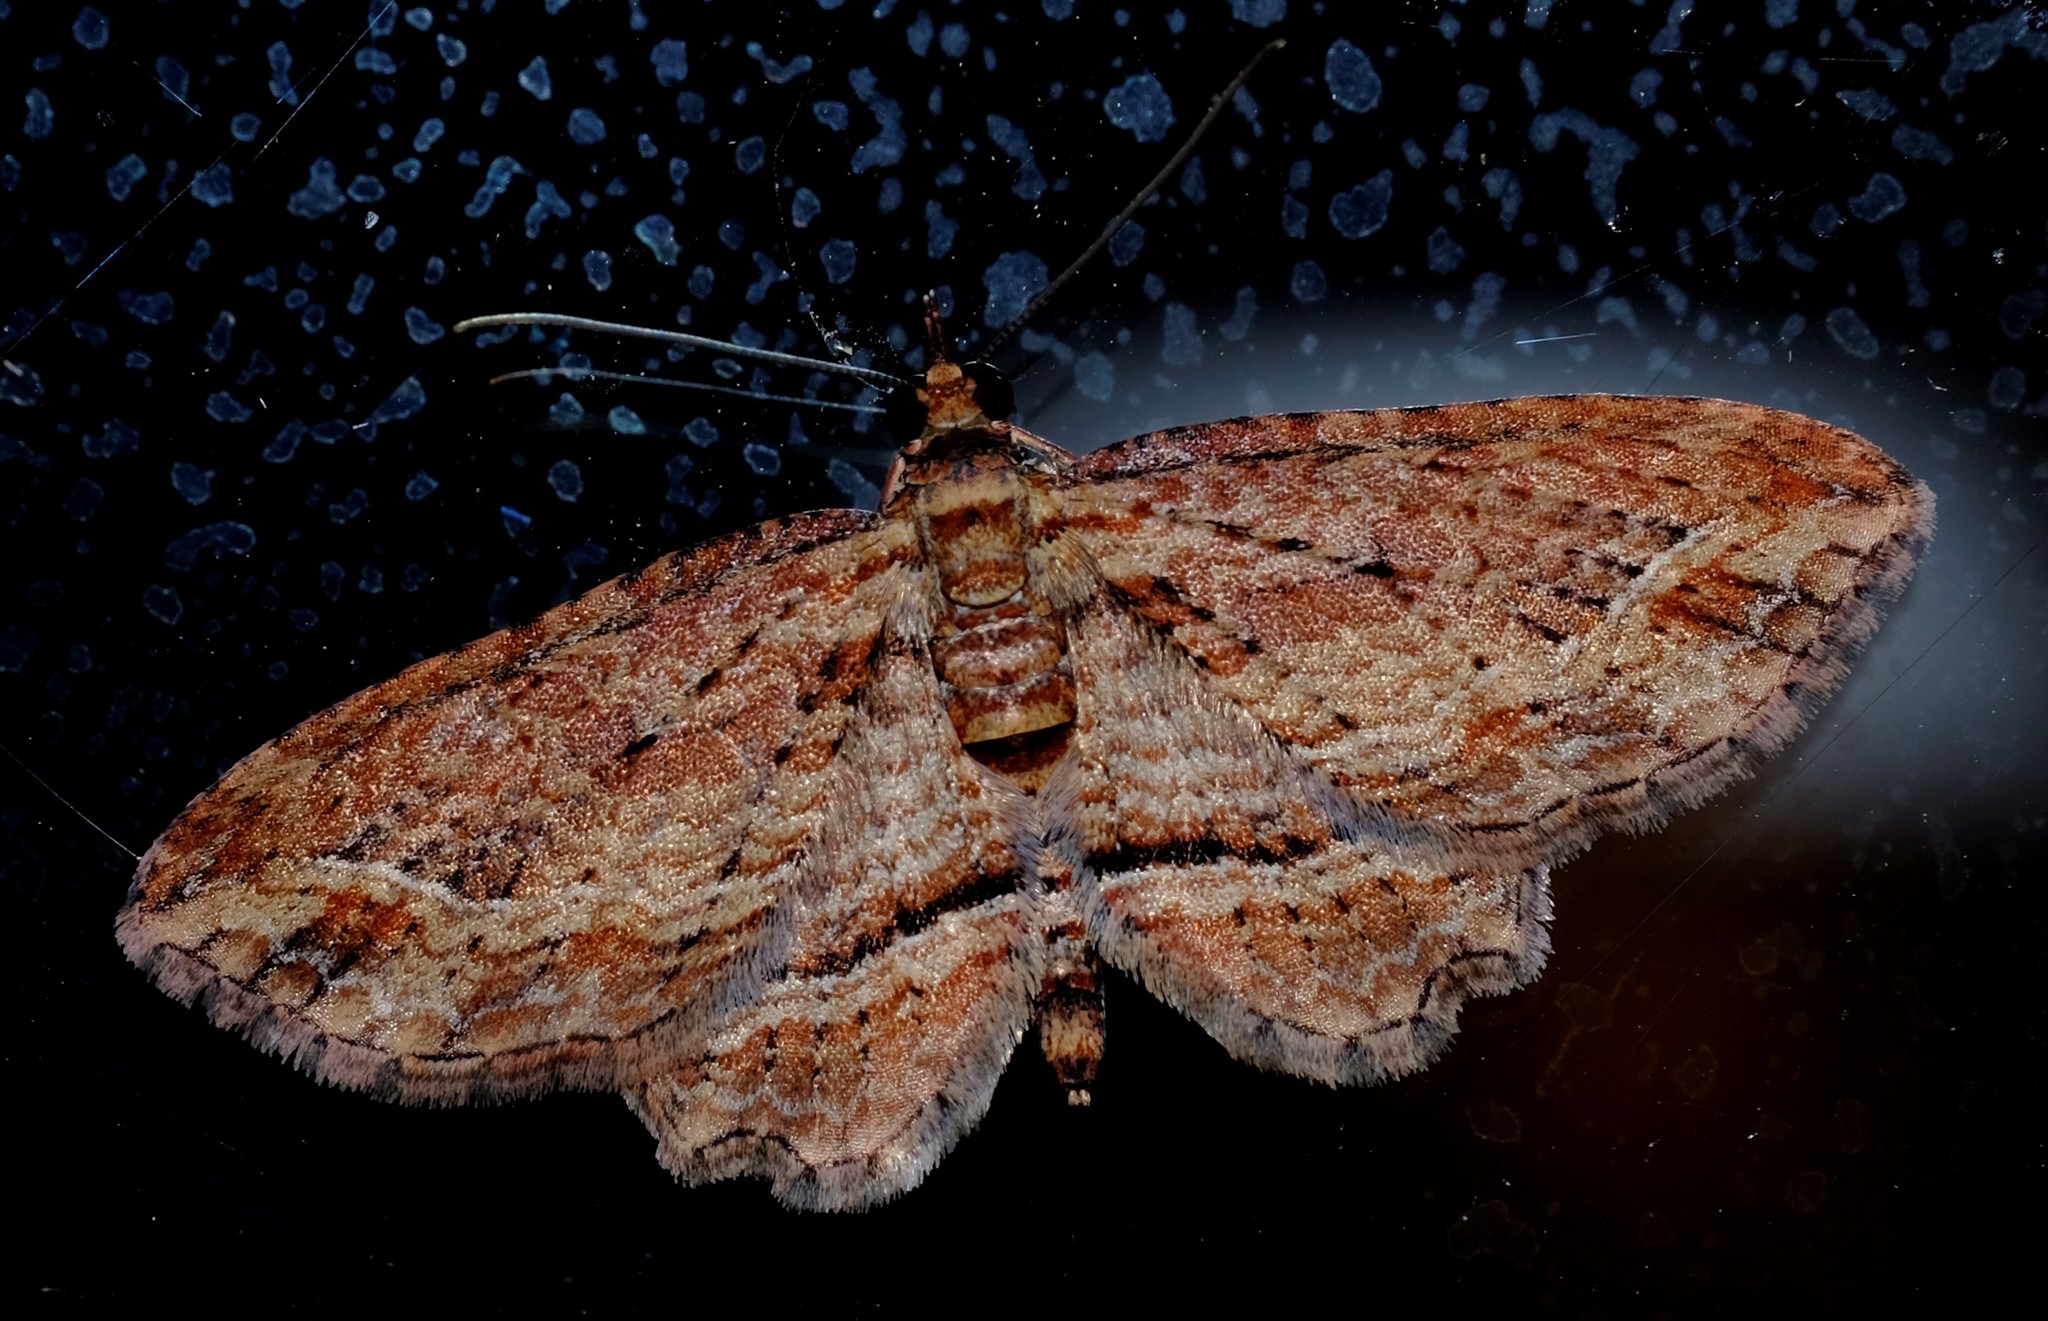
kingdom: Animalia
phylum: Arthropoda
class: Insecta
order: Lepidoptera
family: Geometridae
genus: Chloroclystis
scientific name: Chloroclystis filata
